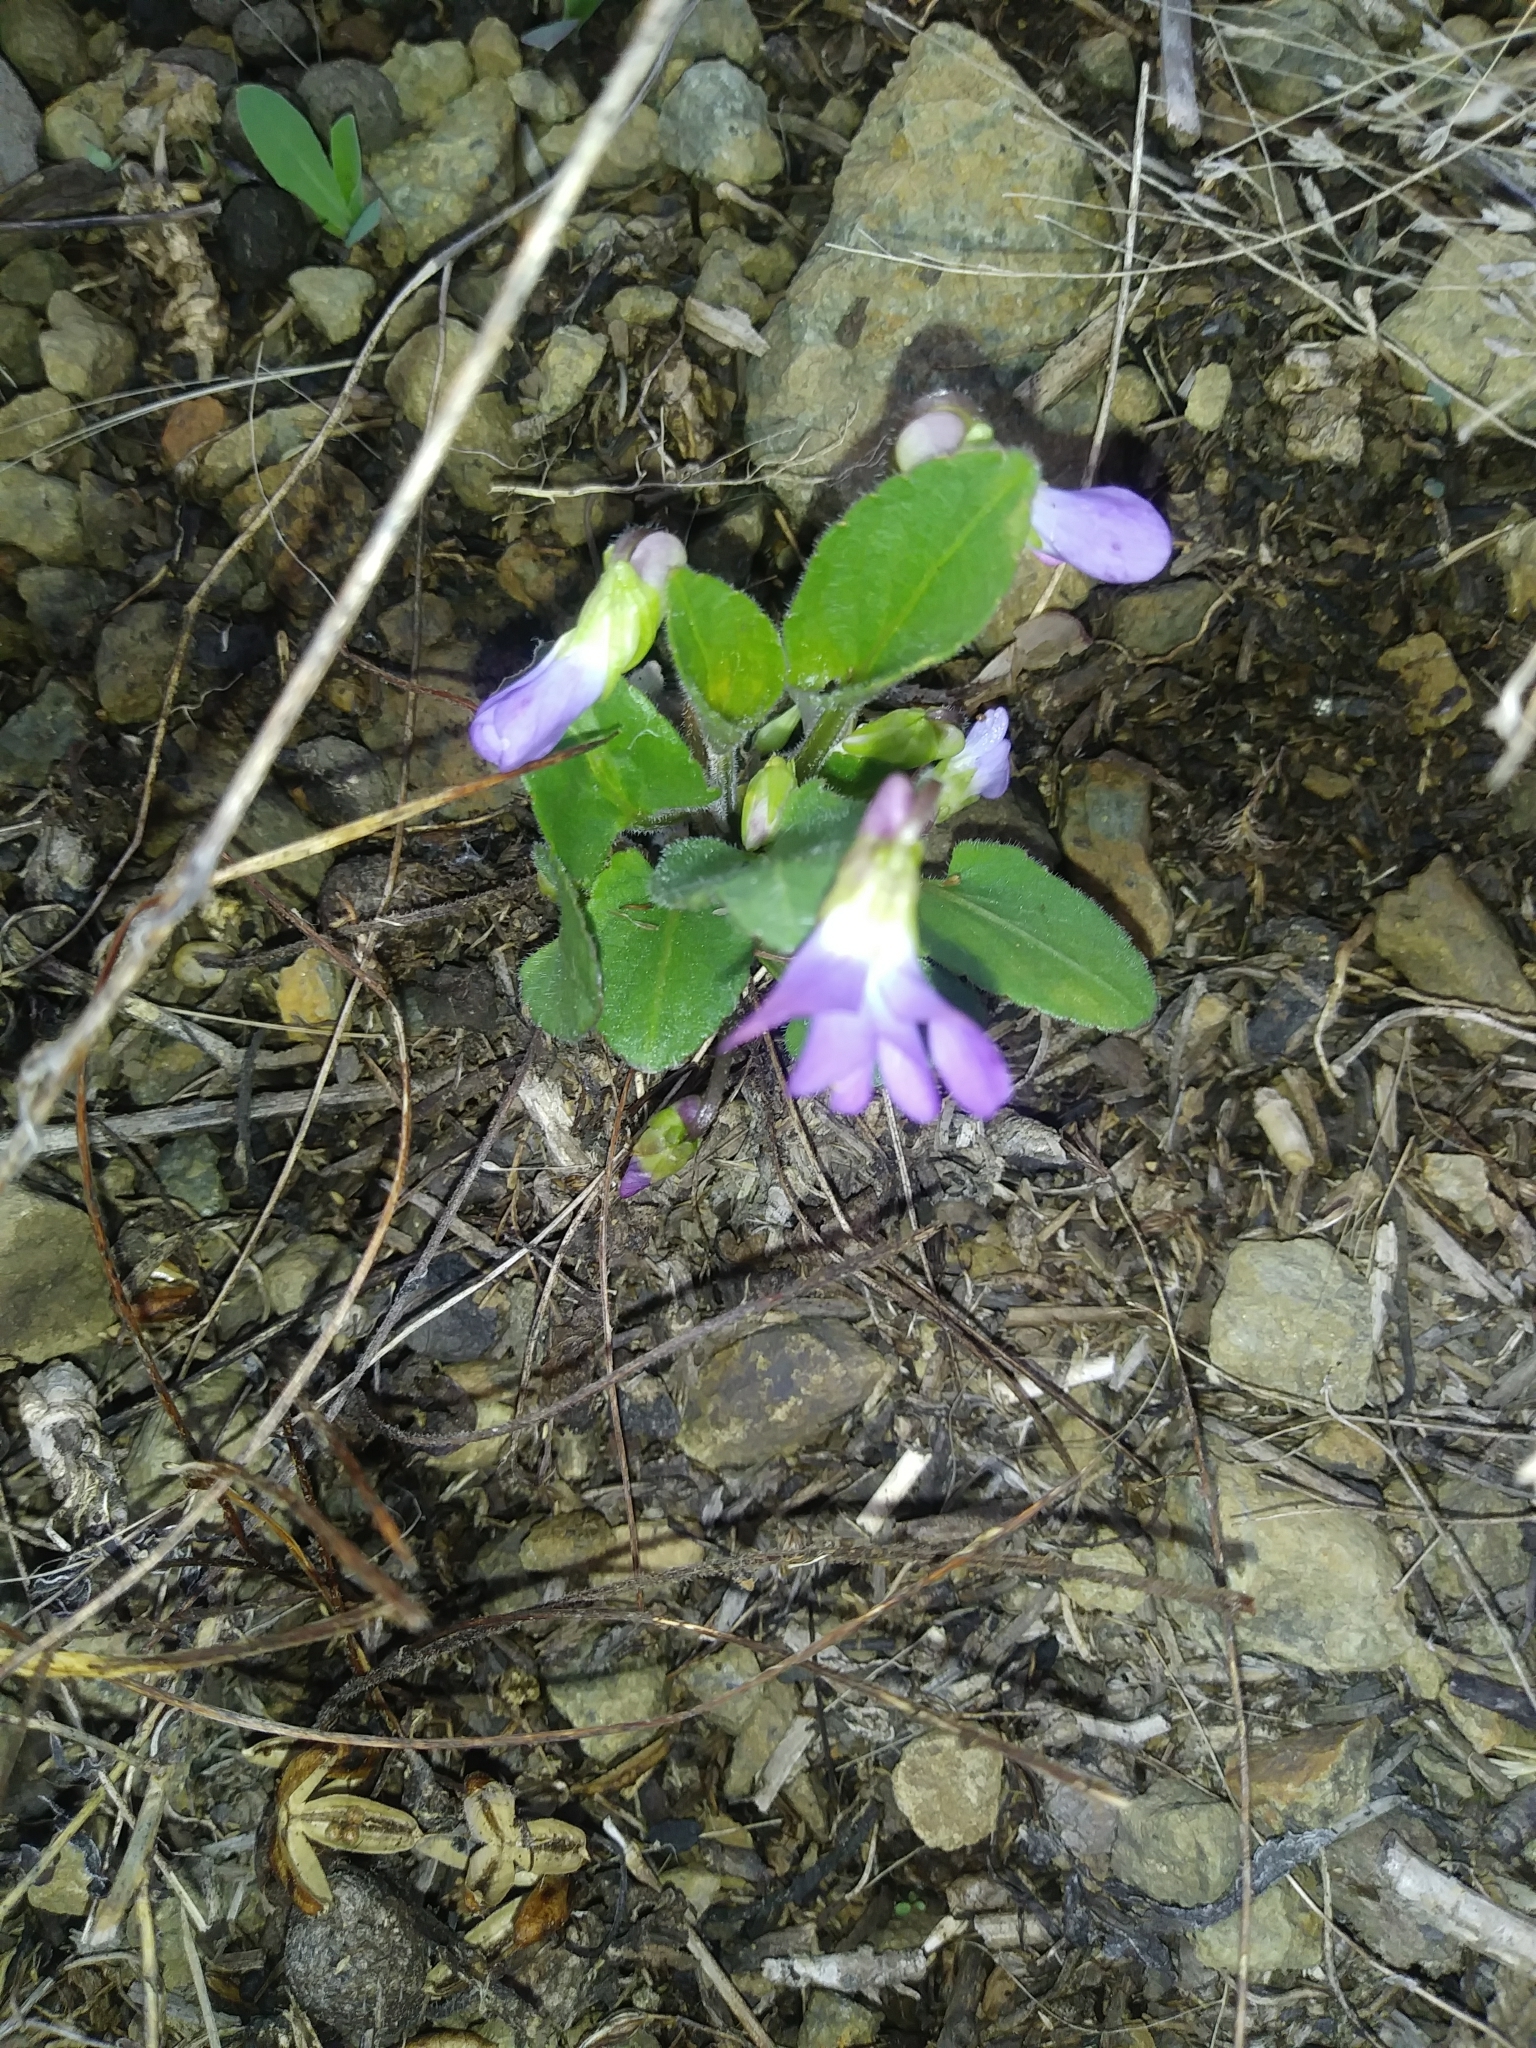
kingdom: Plantae
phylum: Tracheophyta
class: Magnoliopsida
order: Malpighiales
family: Violaceae
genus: Viola
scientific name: Viola sagittata
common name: Arrowhead violet
